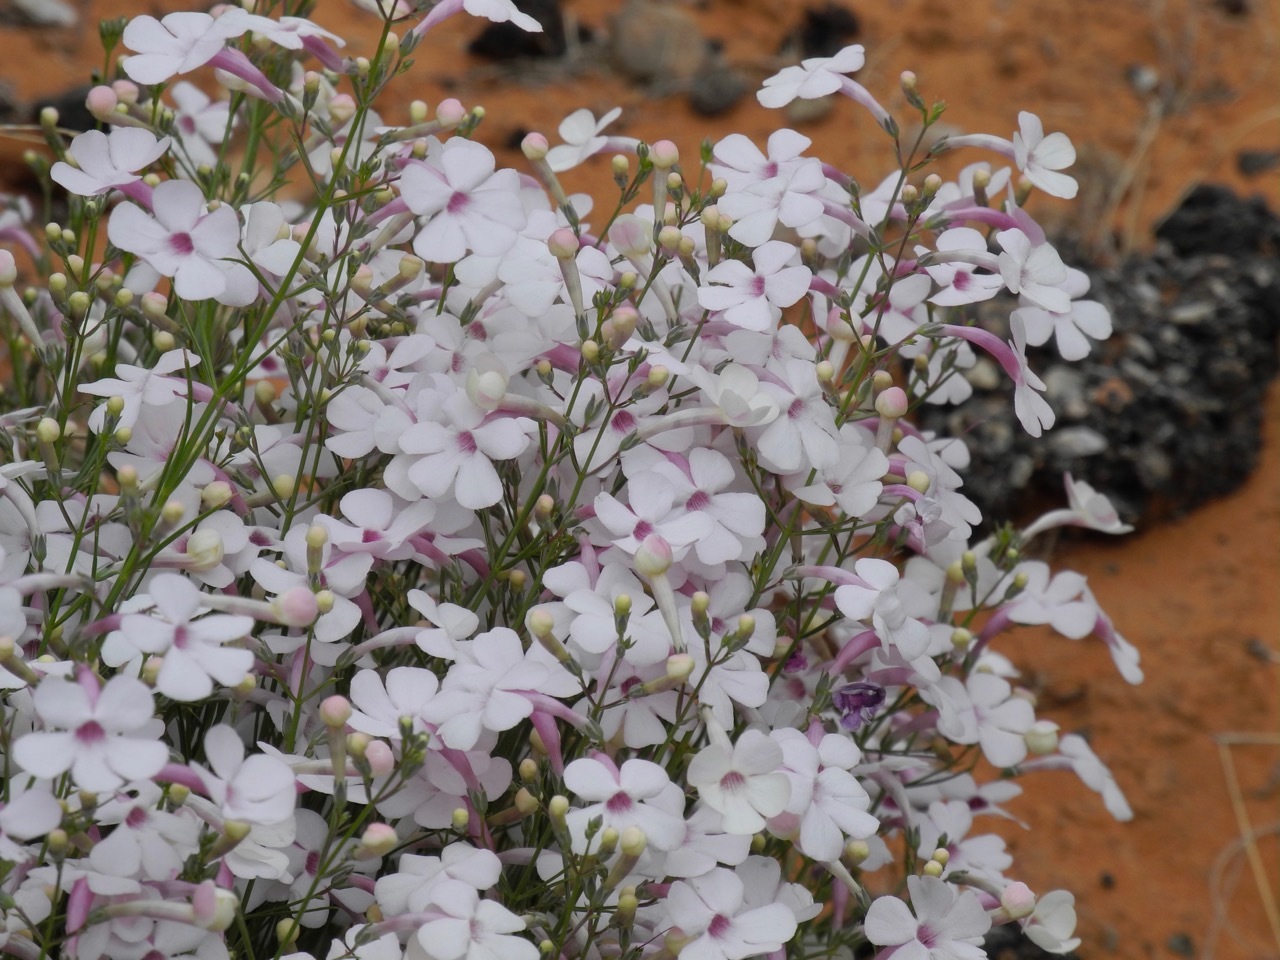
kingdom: Plantae
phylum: Tracheophyta
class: Magnoliopsida
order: Lamiales
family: Plantaginaceae
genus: Penstemon
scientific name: Penstemon ambiguus
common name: Bush penstemon
